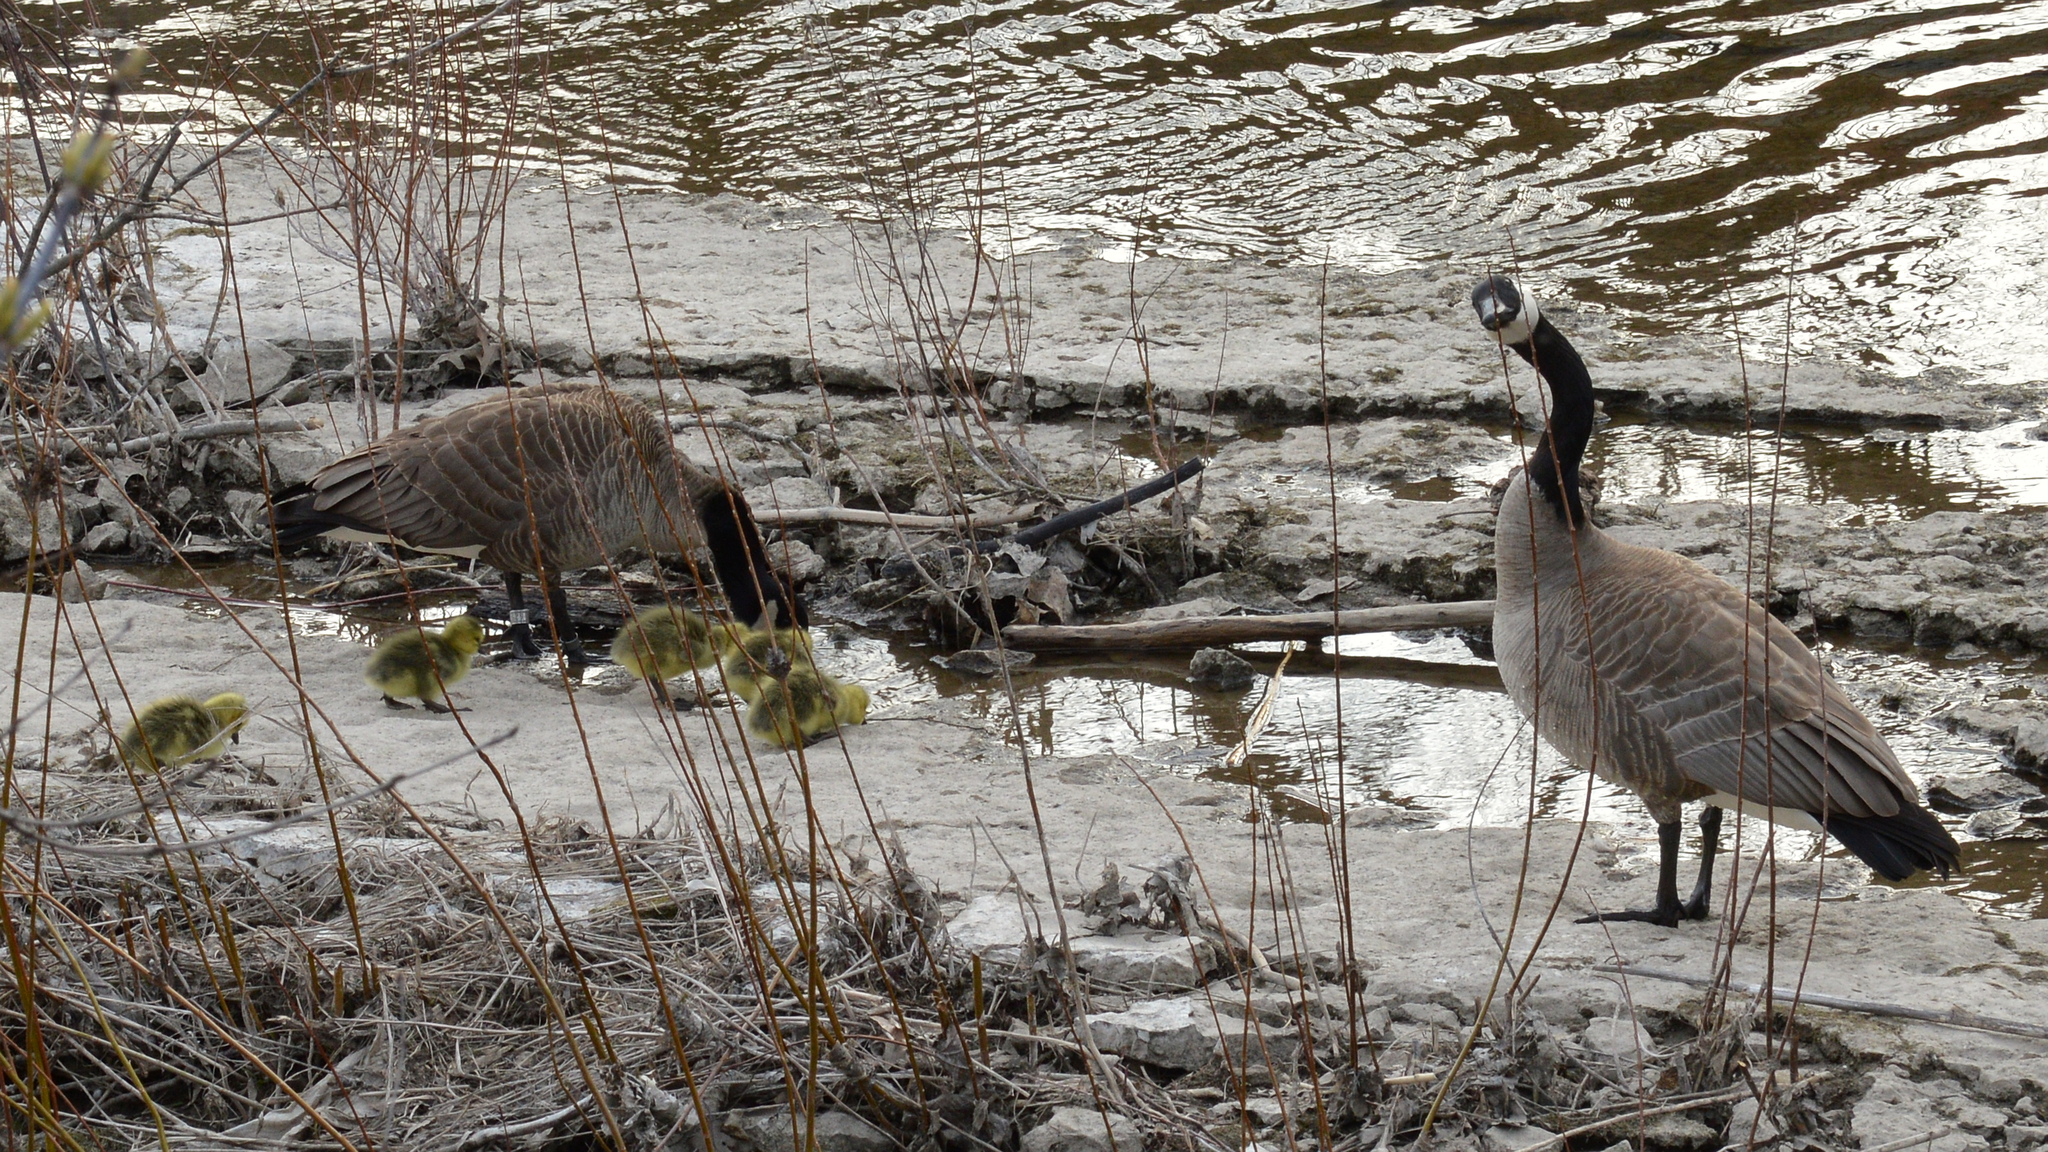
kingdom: Animalia
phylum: Chordata
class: Aves
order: Anseriformes
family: Anatidae
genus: Branta
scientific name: Branta canadensis
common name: Canada goose
